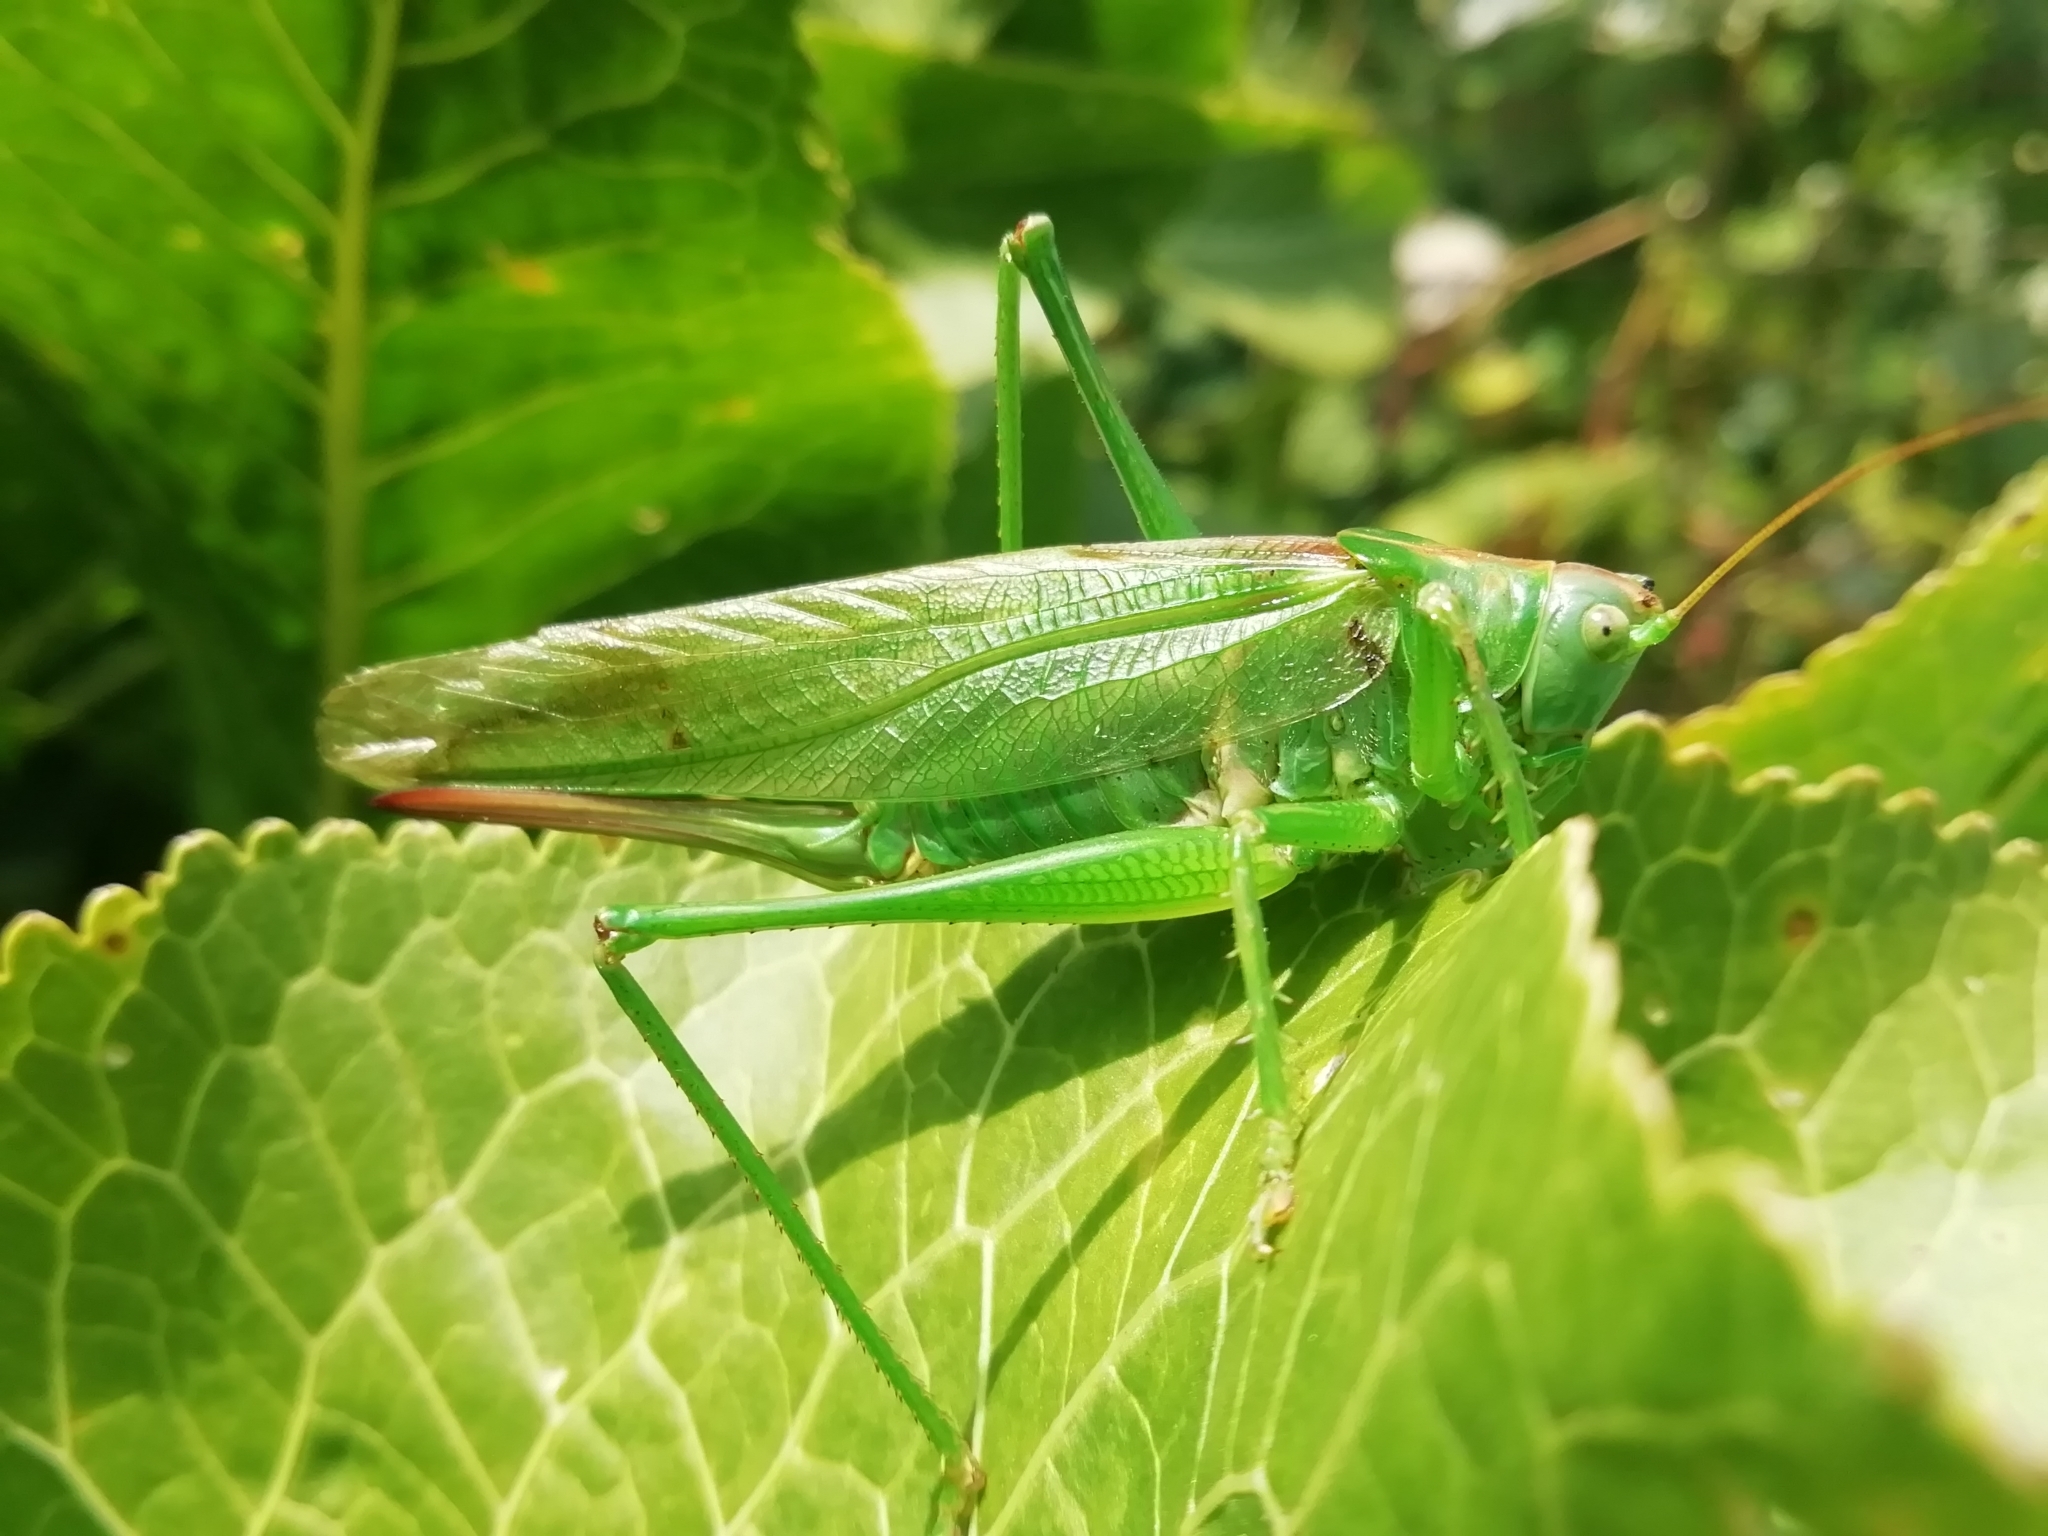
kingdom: Animalia
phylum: Arthropoda
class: Insecta
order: Orthoptera
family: Tettigoniidae
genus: Tettigonia
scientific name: Tettigonia viridissima
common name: Great green bush-cricket
